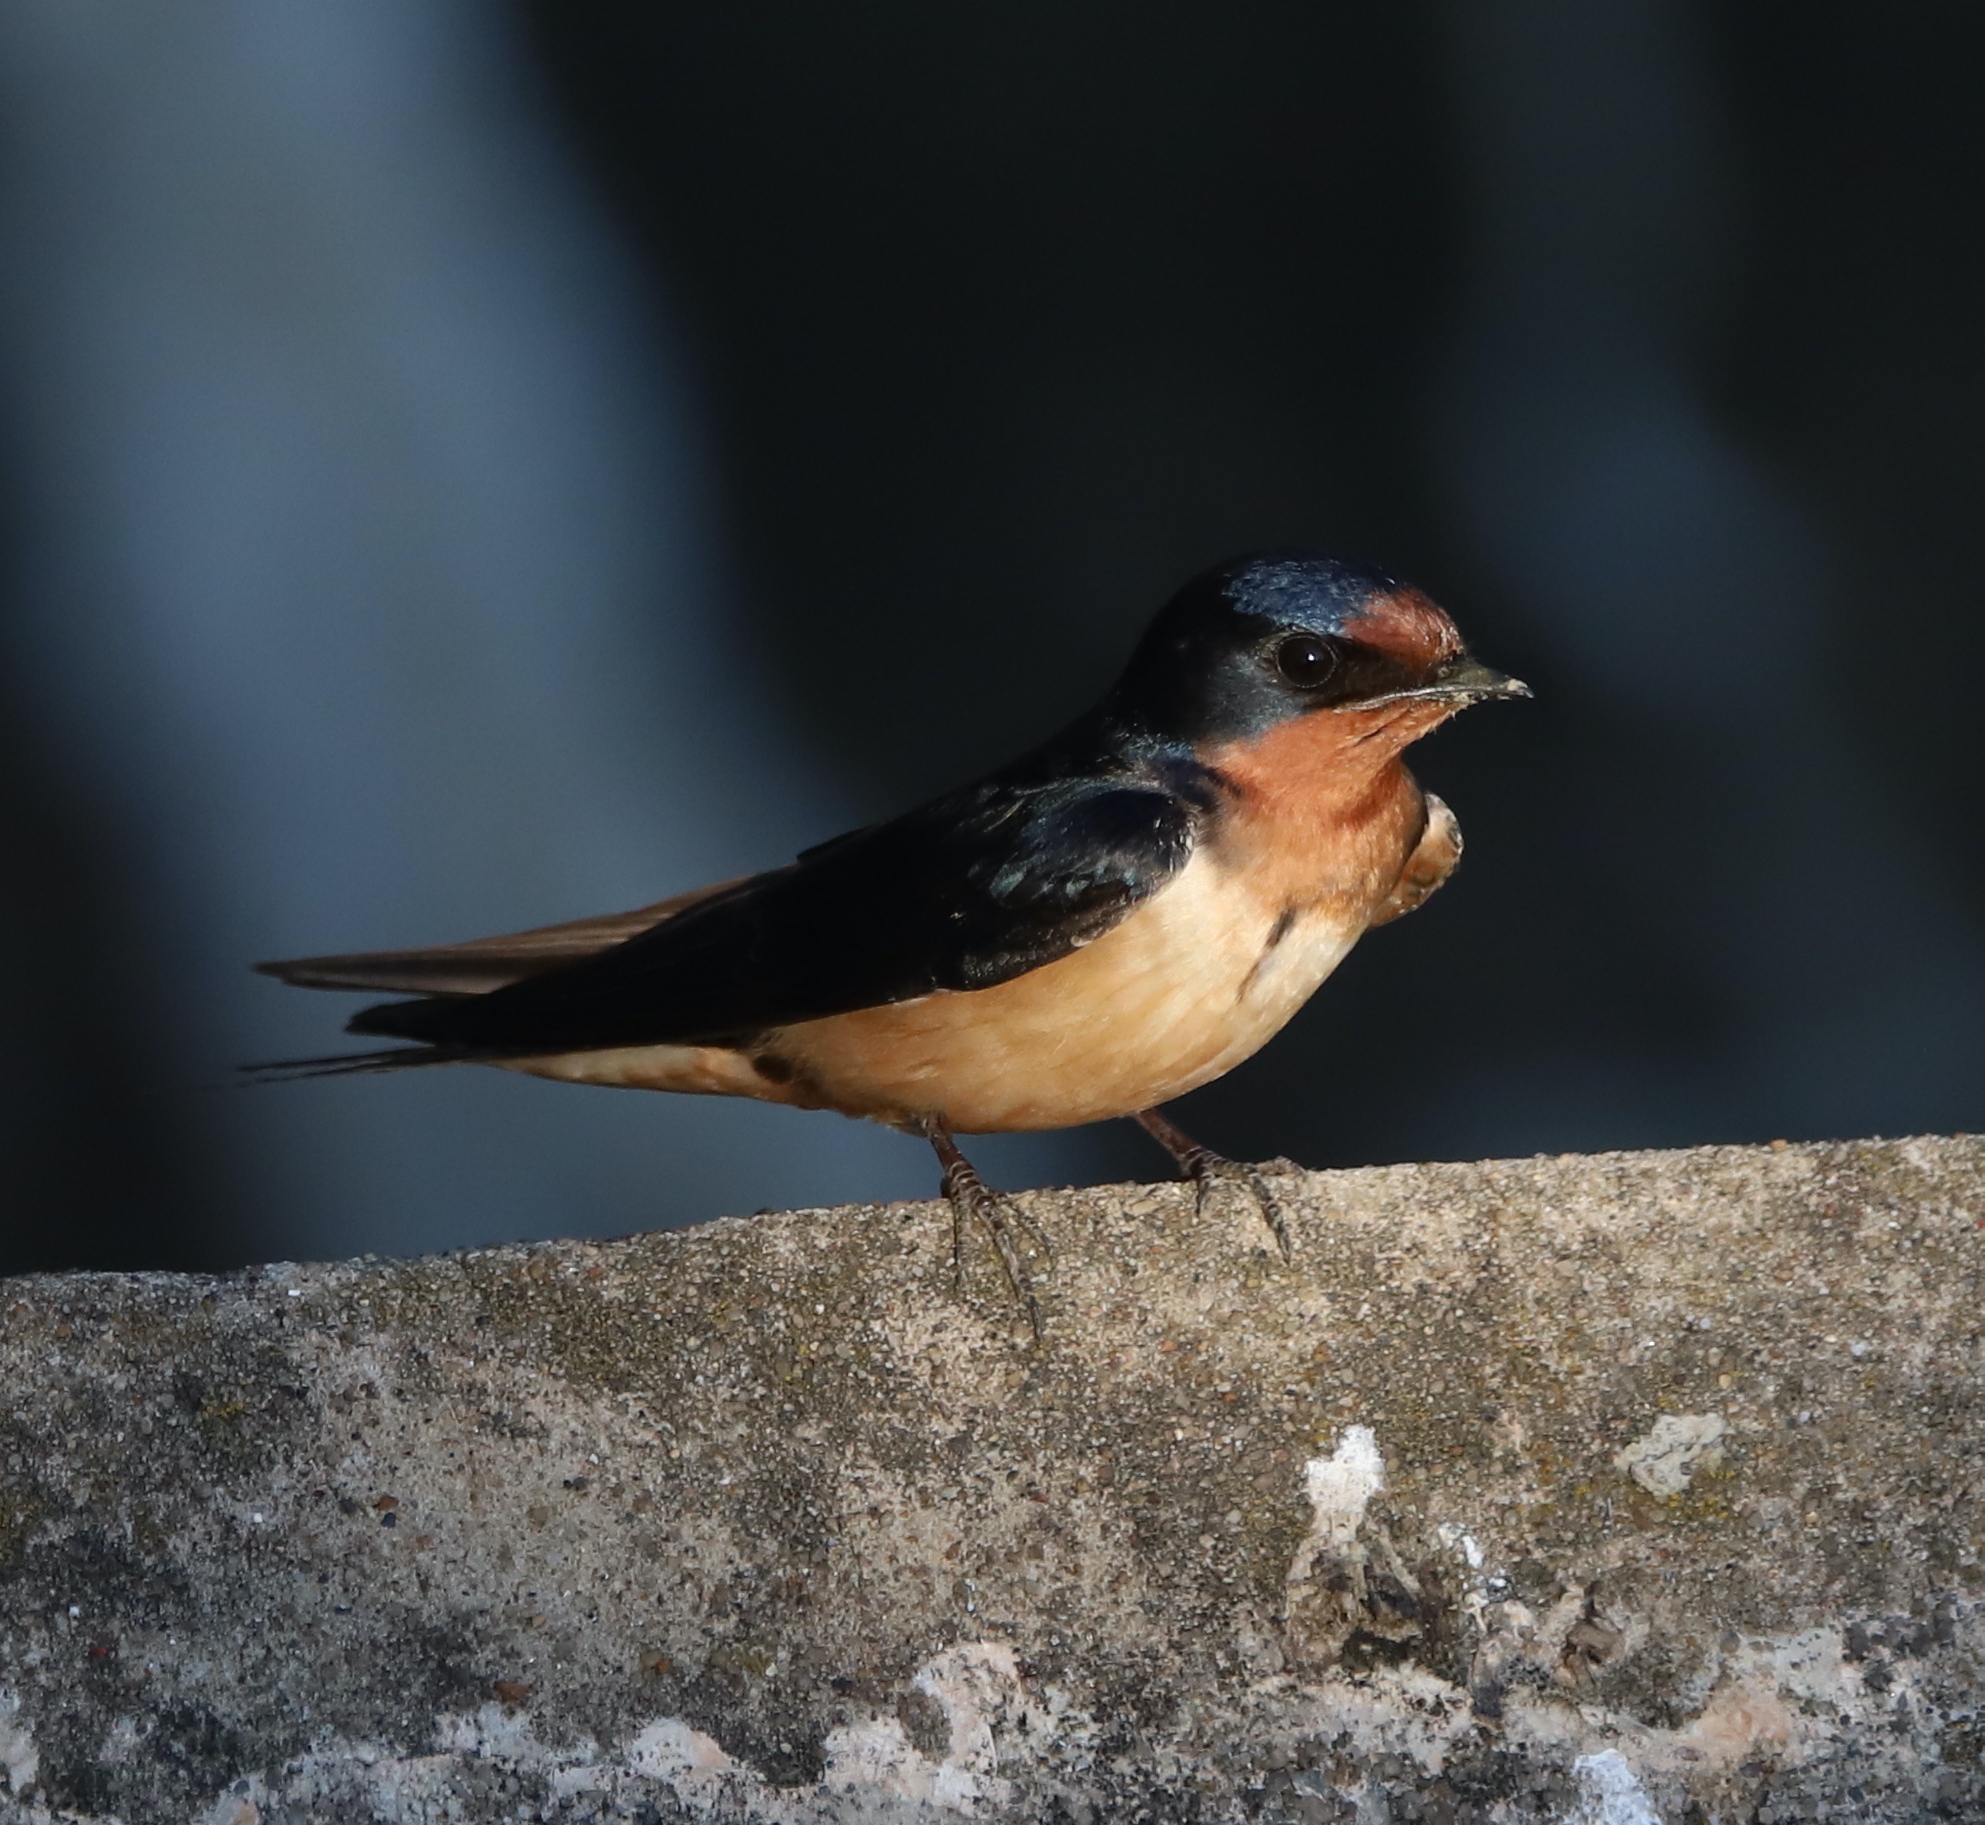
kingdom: Animalia
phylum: Chordata
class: Aves
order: Passeriformes
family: Hirundinidae
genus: Hirundo
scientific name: Hirundo rustica
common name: Barn swallow
